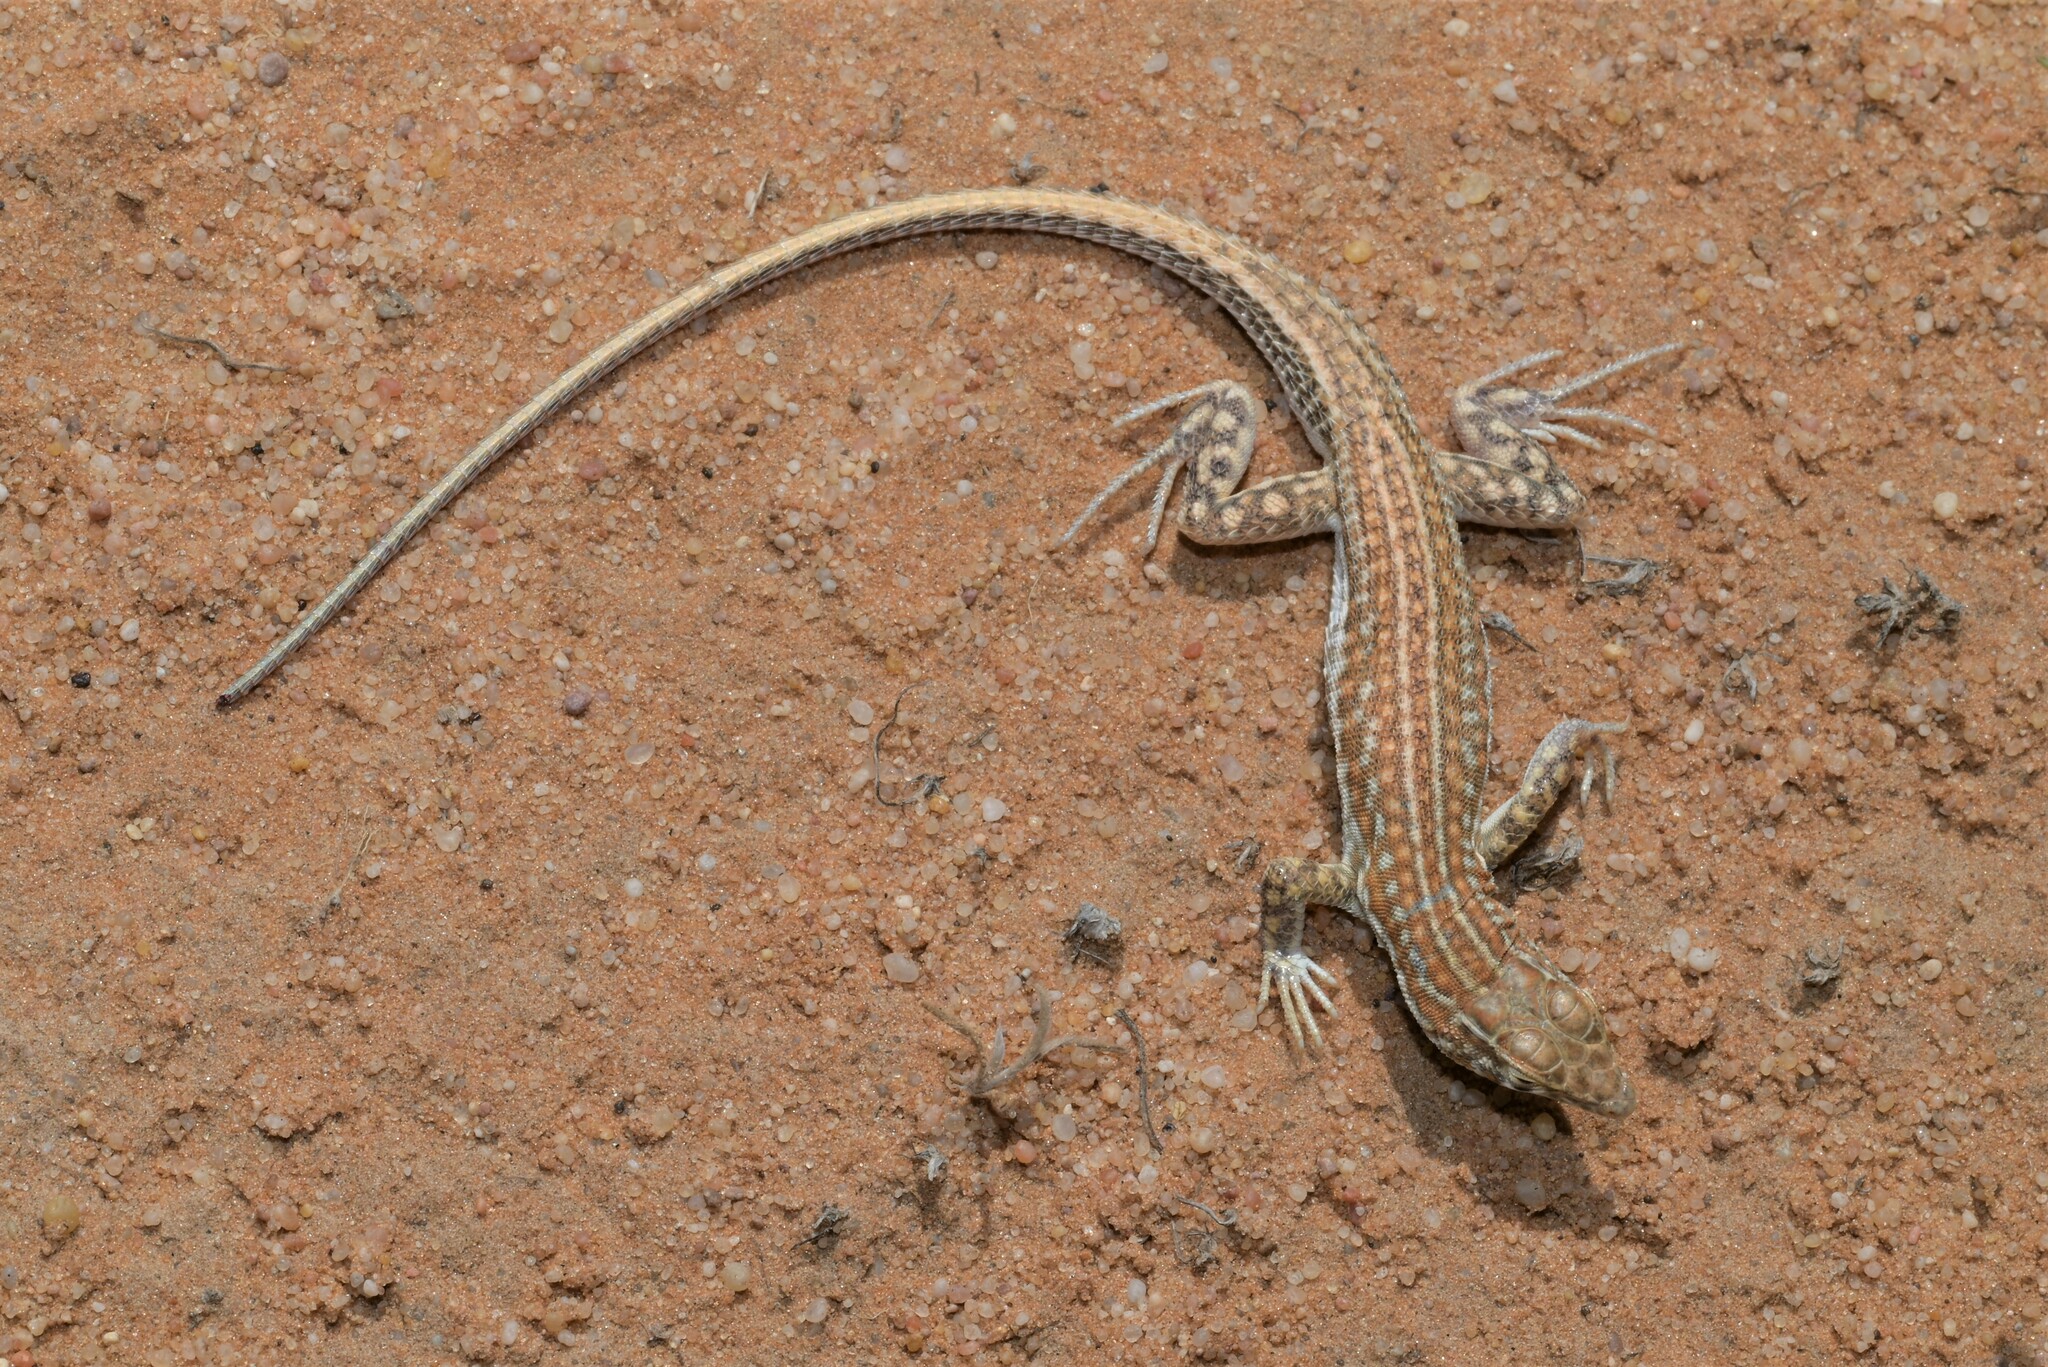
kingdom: Animalia
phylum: Chordata
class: Squamata
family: Lacertidae
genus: Acanthodactylus
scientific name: Acanthodactylus opheodurus
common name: Arnold's fringe-fingered lizard
